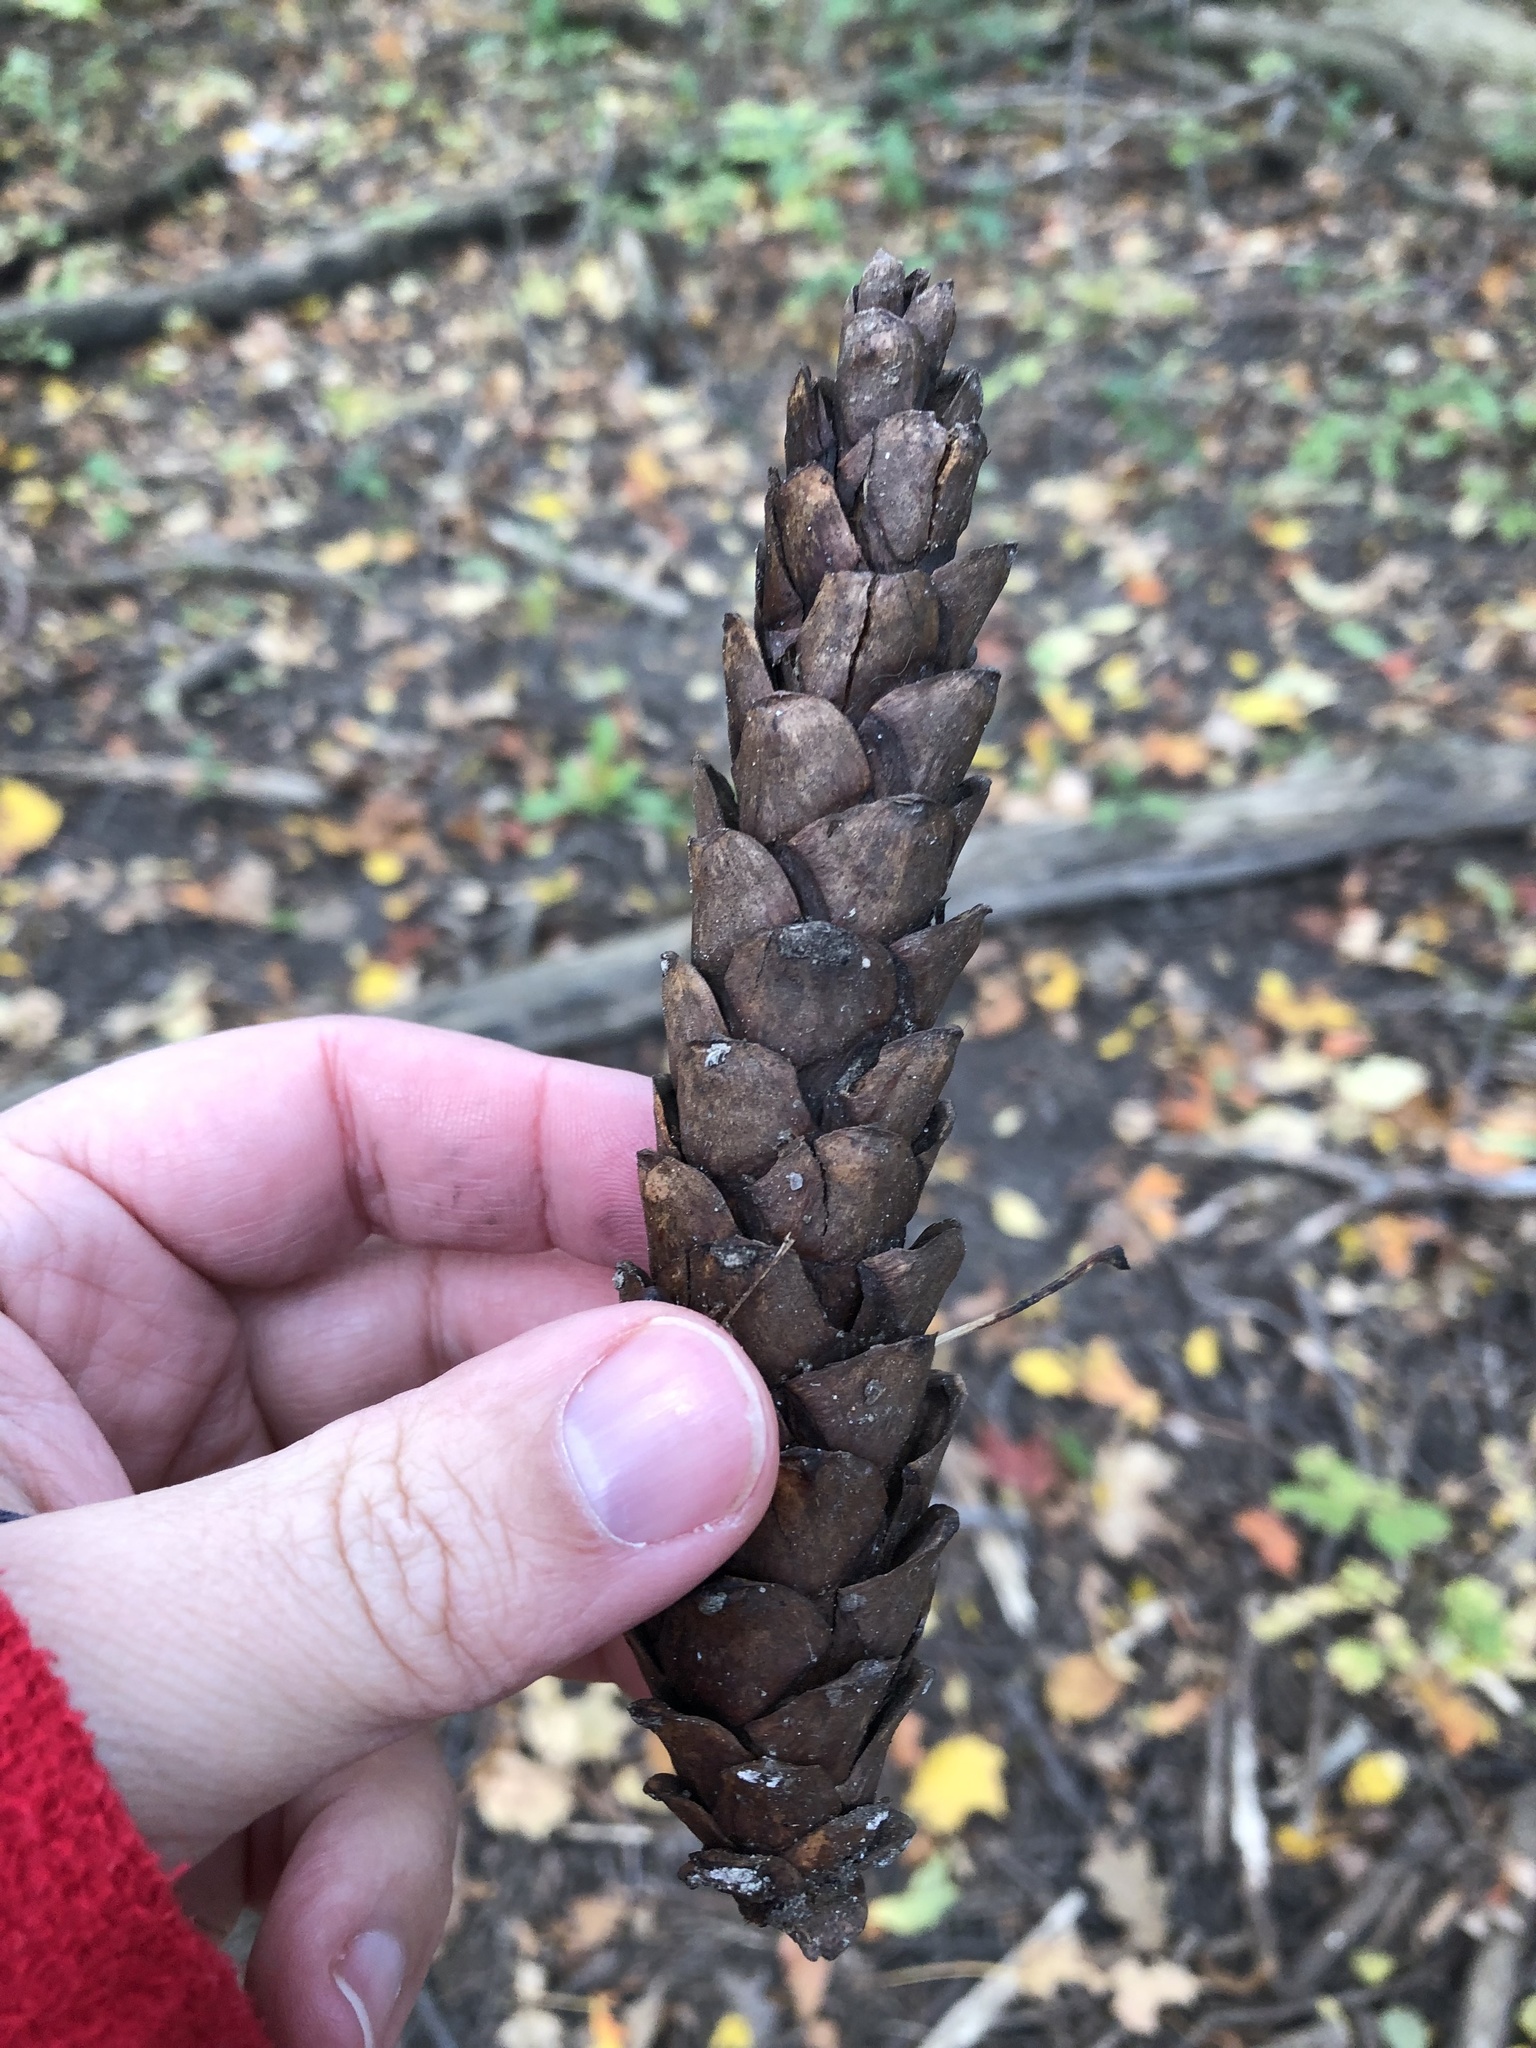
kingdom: Plantae
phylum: Tracheophyta
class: Pinopsida
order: Pinales
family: Pinaceae
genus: Pinus
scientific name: Pinus strobus
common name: Weymouth pine
